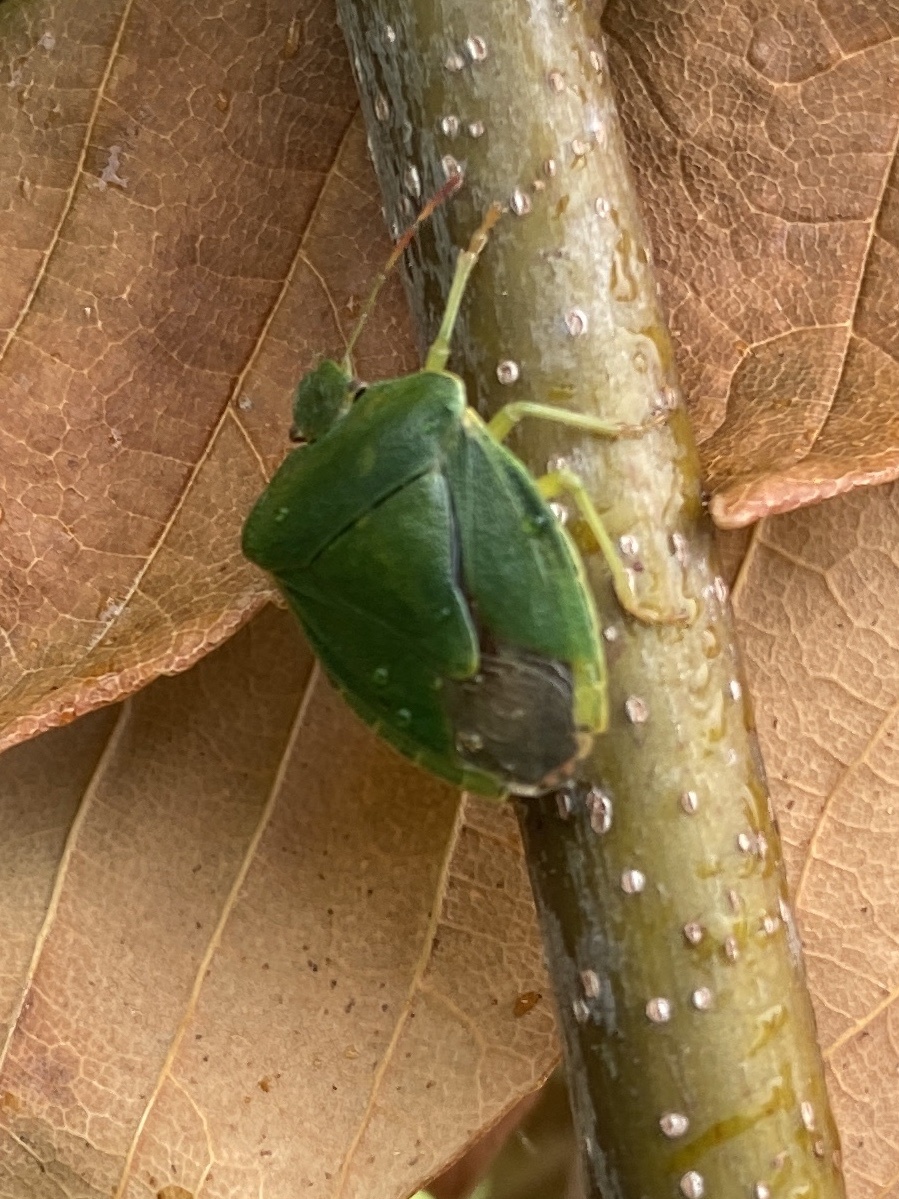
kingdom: Animalia
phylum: Arthropoda
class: Insecta
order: Hemiptera
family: Pentatomidae
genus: Palomena
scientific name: Palomena prasina
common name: Green shieldbug
